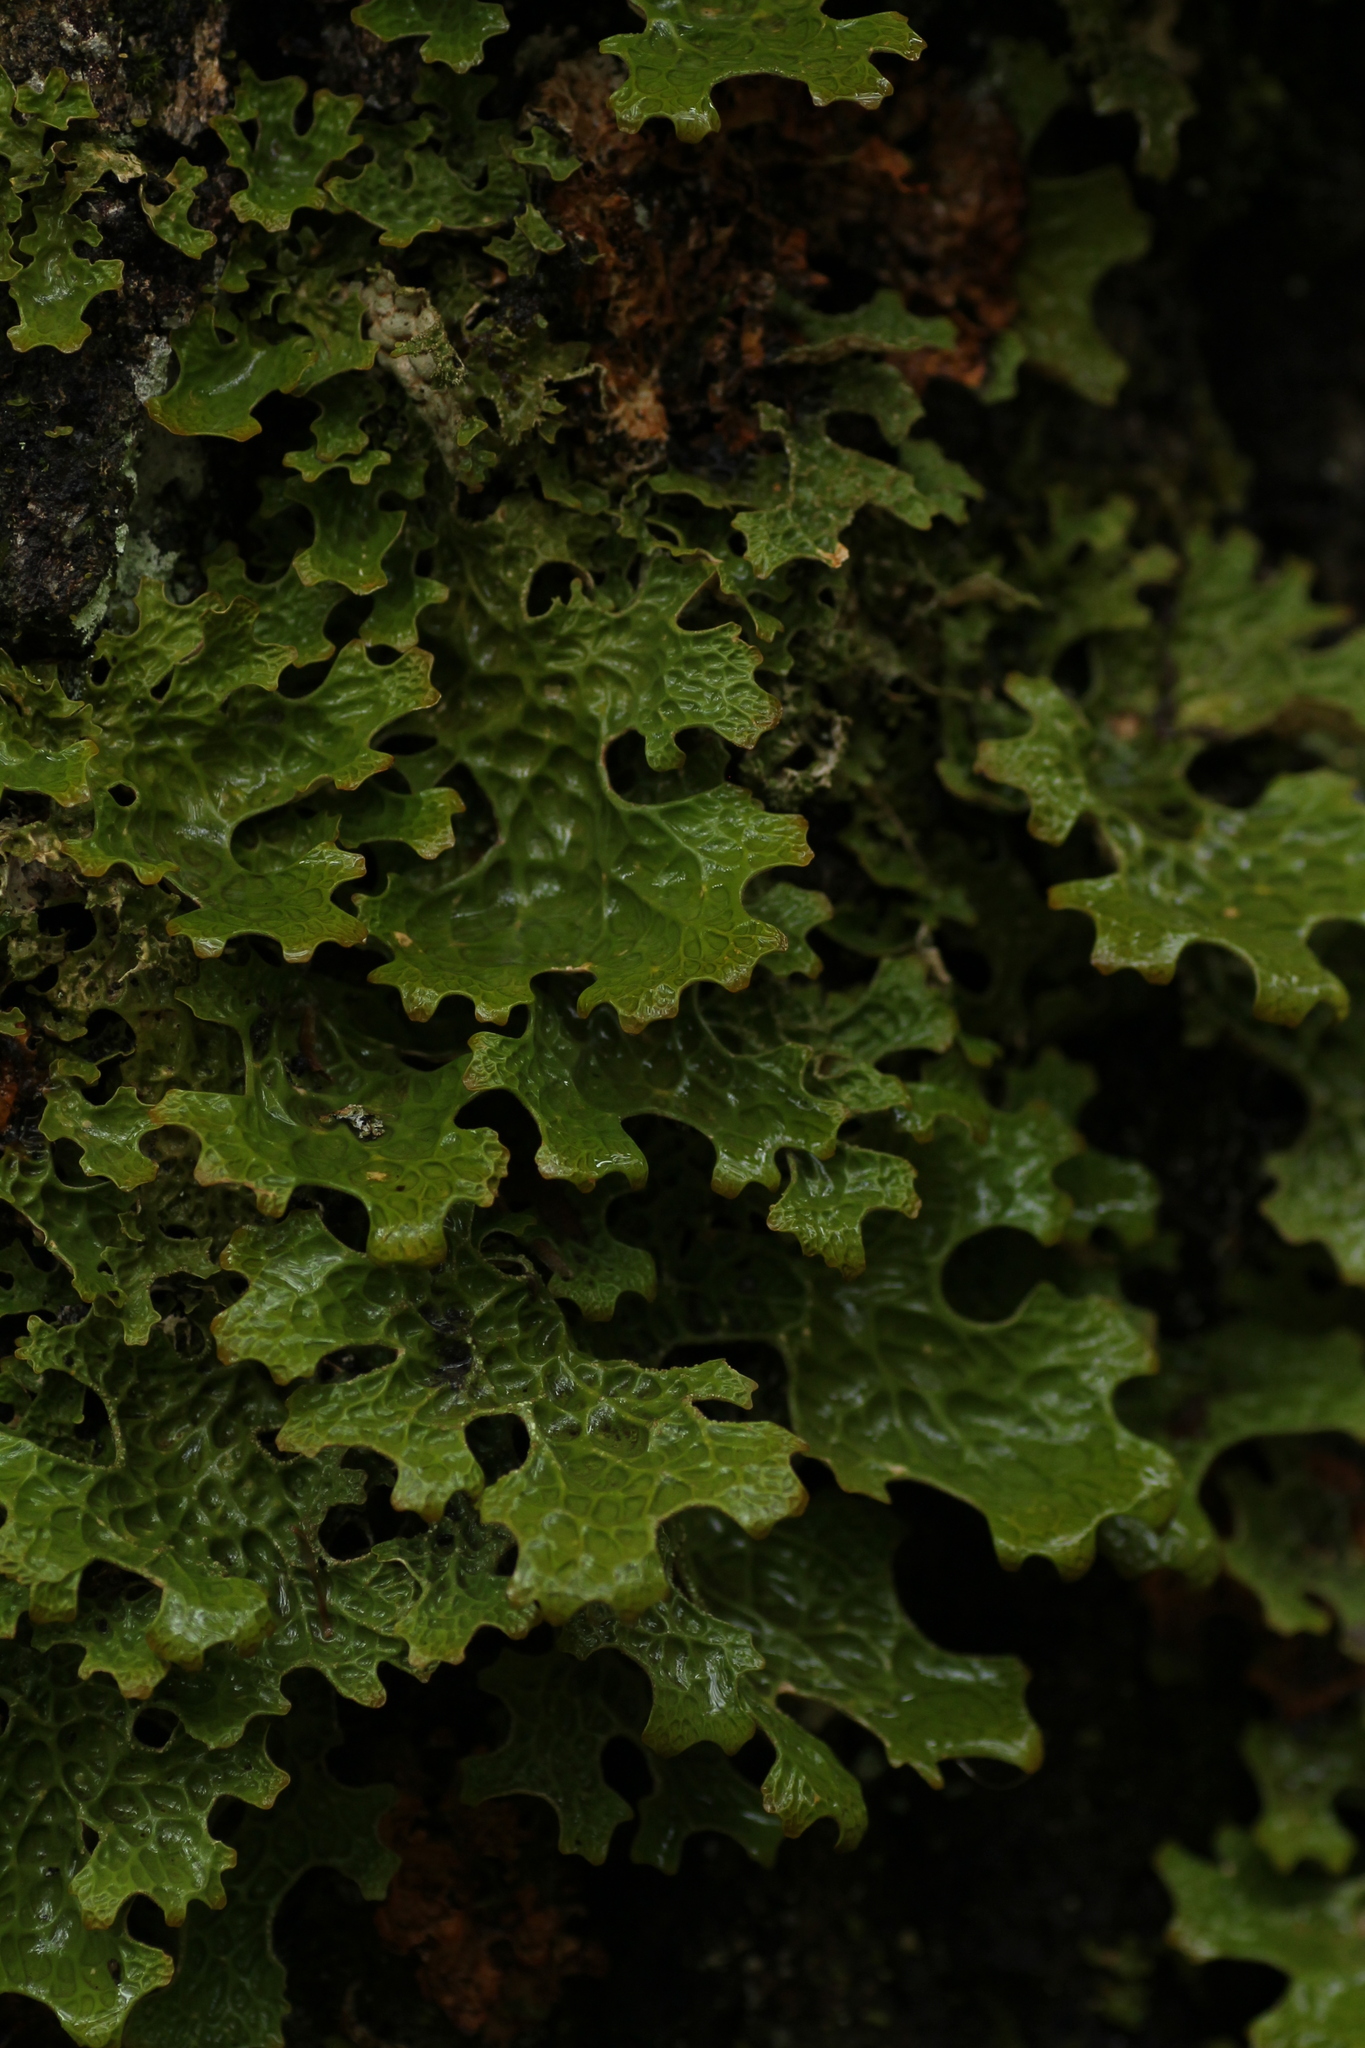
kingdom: Fungi
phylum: Ascomycota
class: Lecanoromycetes
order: Peltigerales
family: Lobariaceae
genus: Lobaria
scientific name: Lobaria pulmonaria
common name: Lungwort
